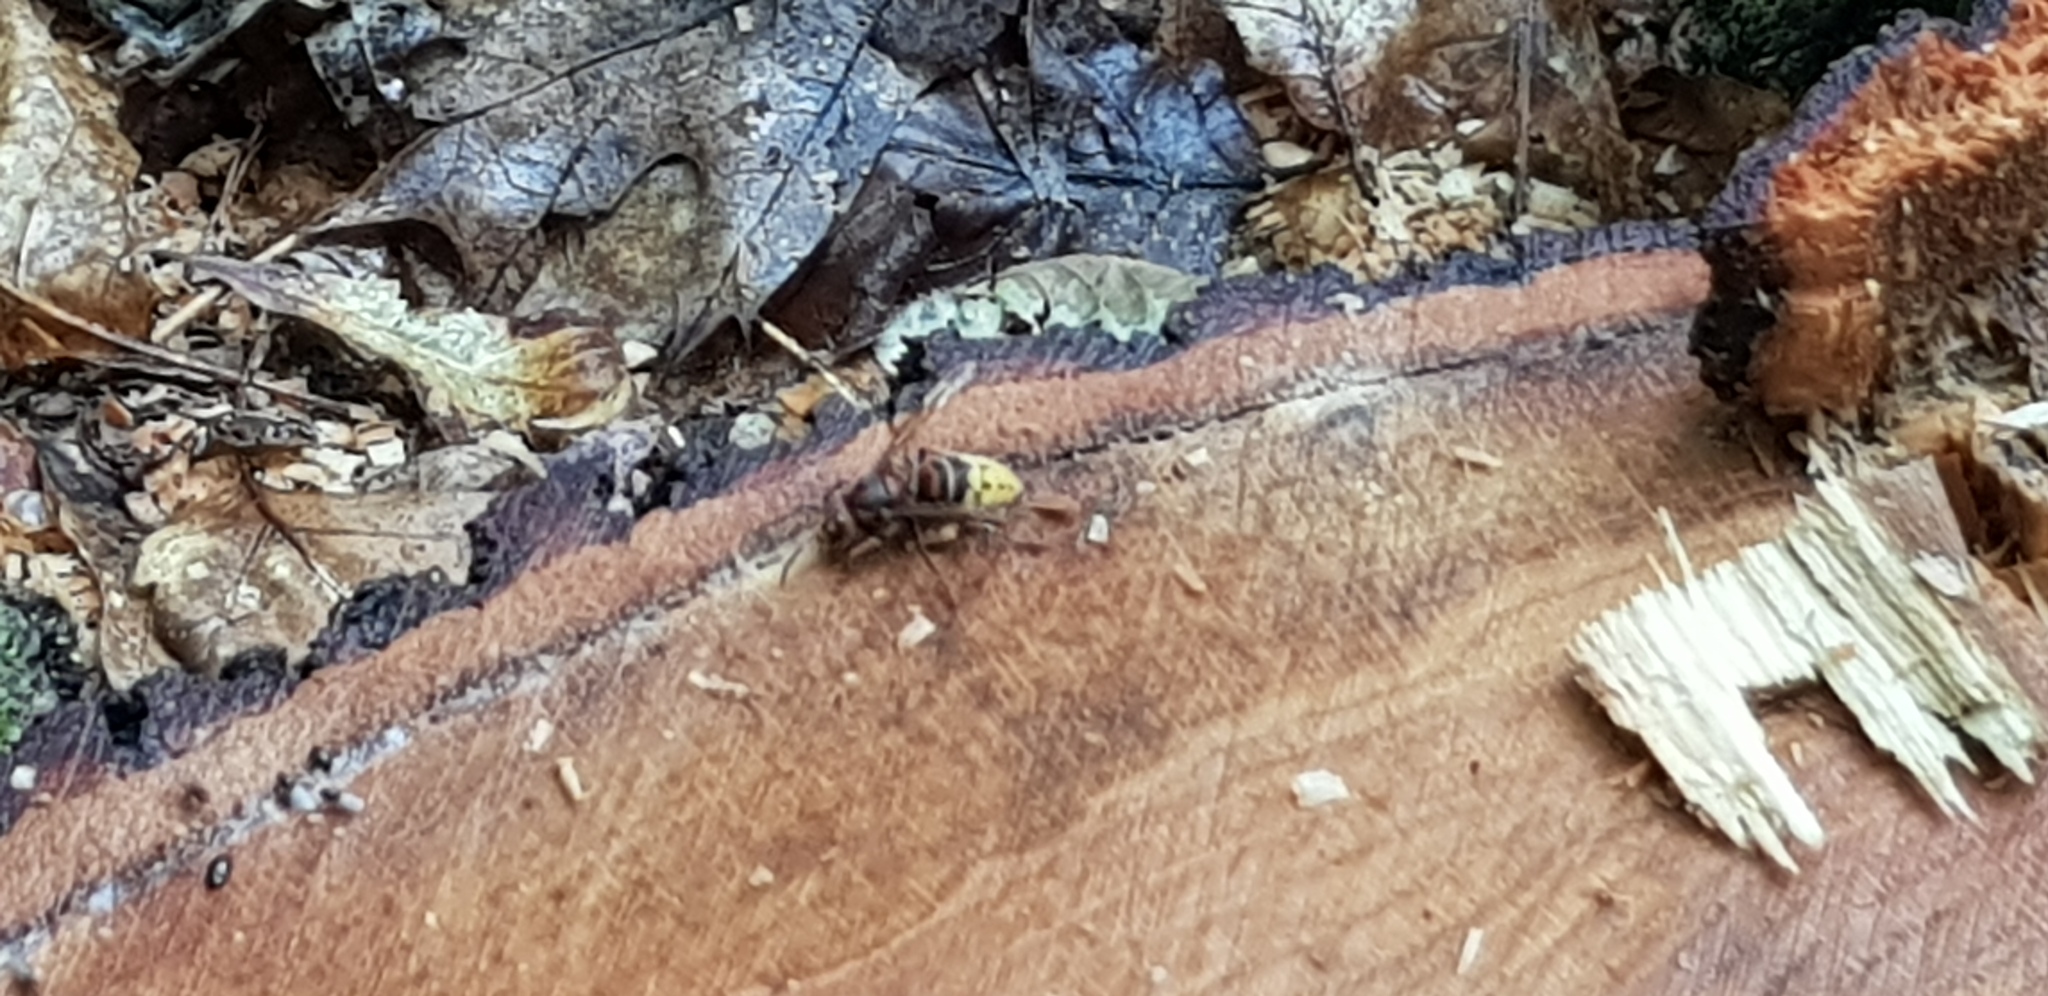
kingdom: Animalia
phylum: Arthropoda
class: Insecta
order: Hymenoptera
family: Vespidae
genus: Vespa
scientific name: Vespa crabro
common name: Hornet
